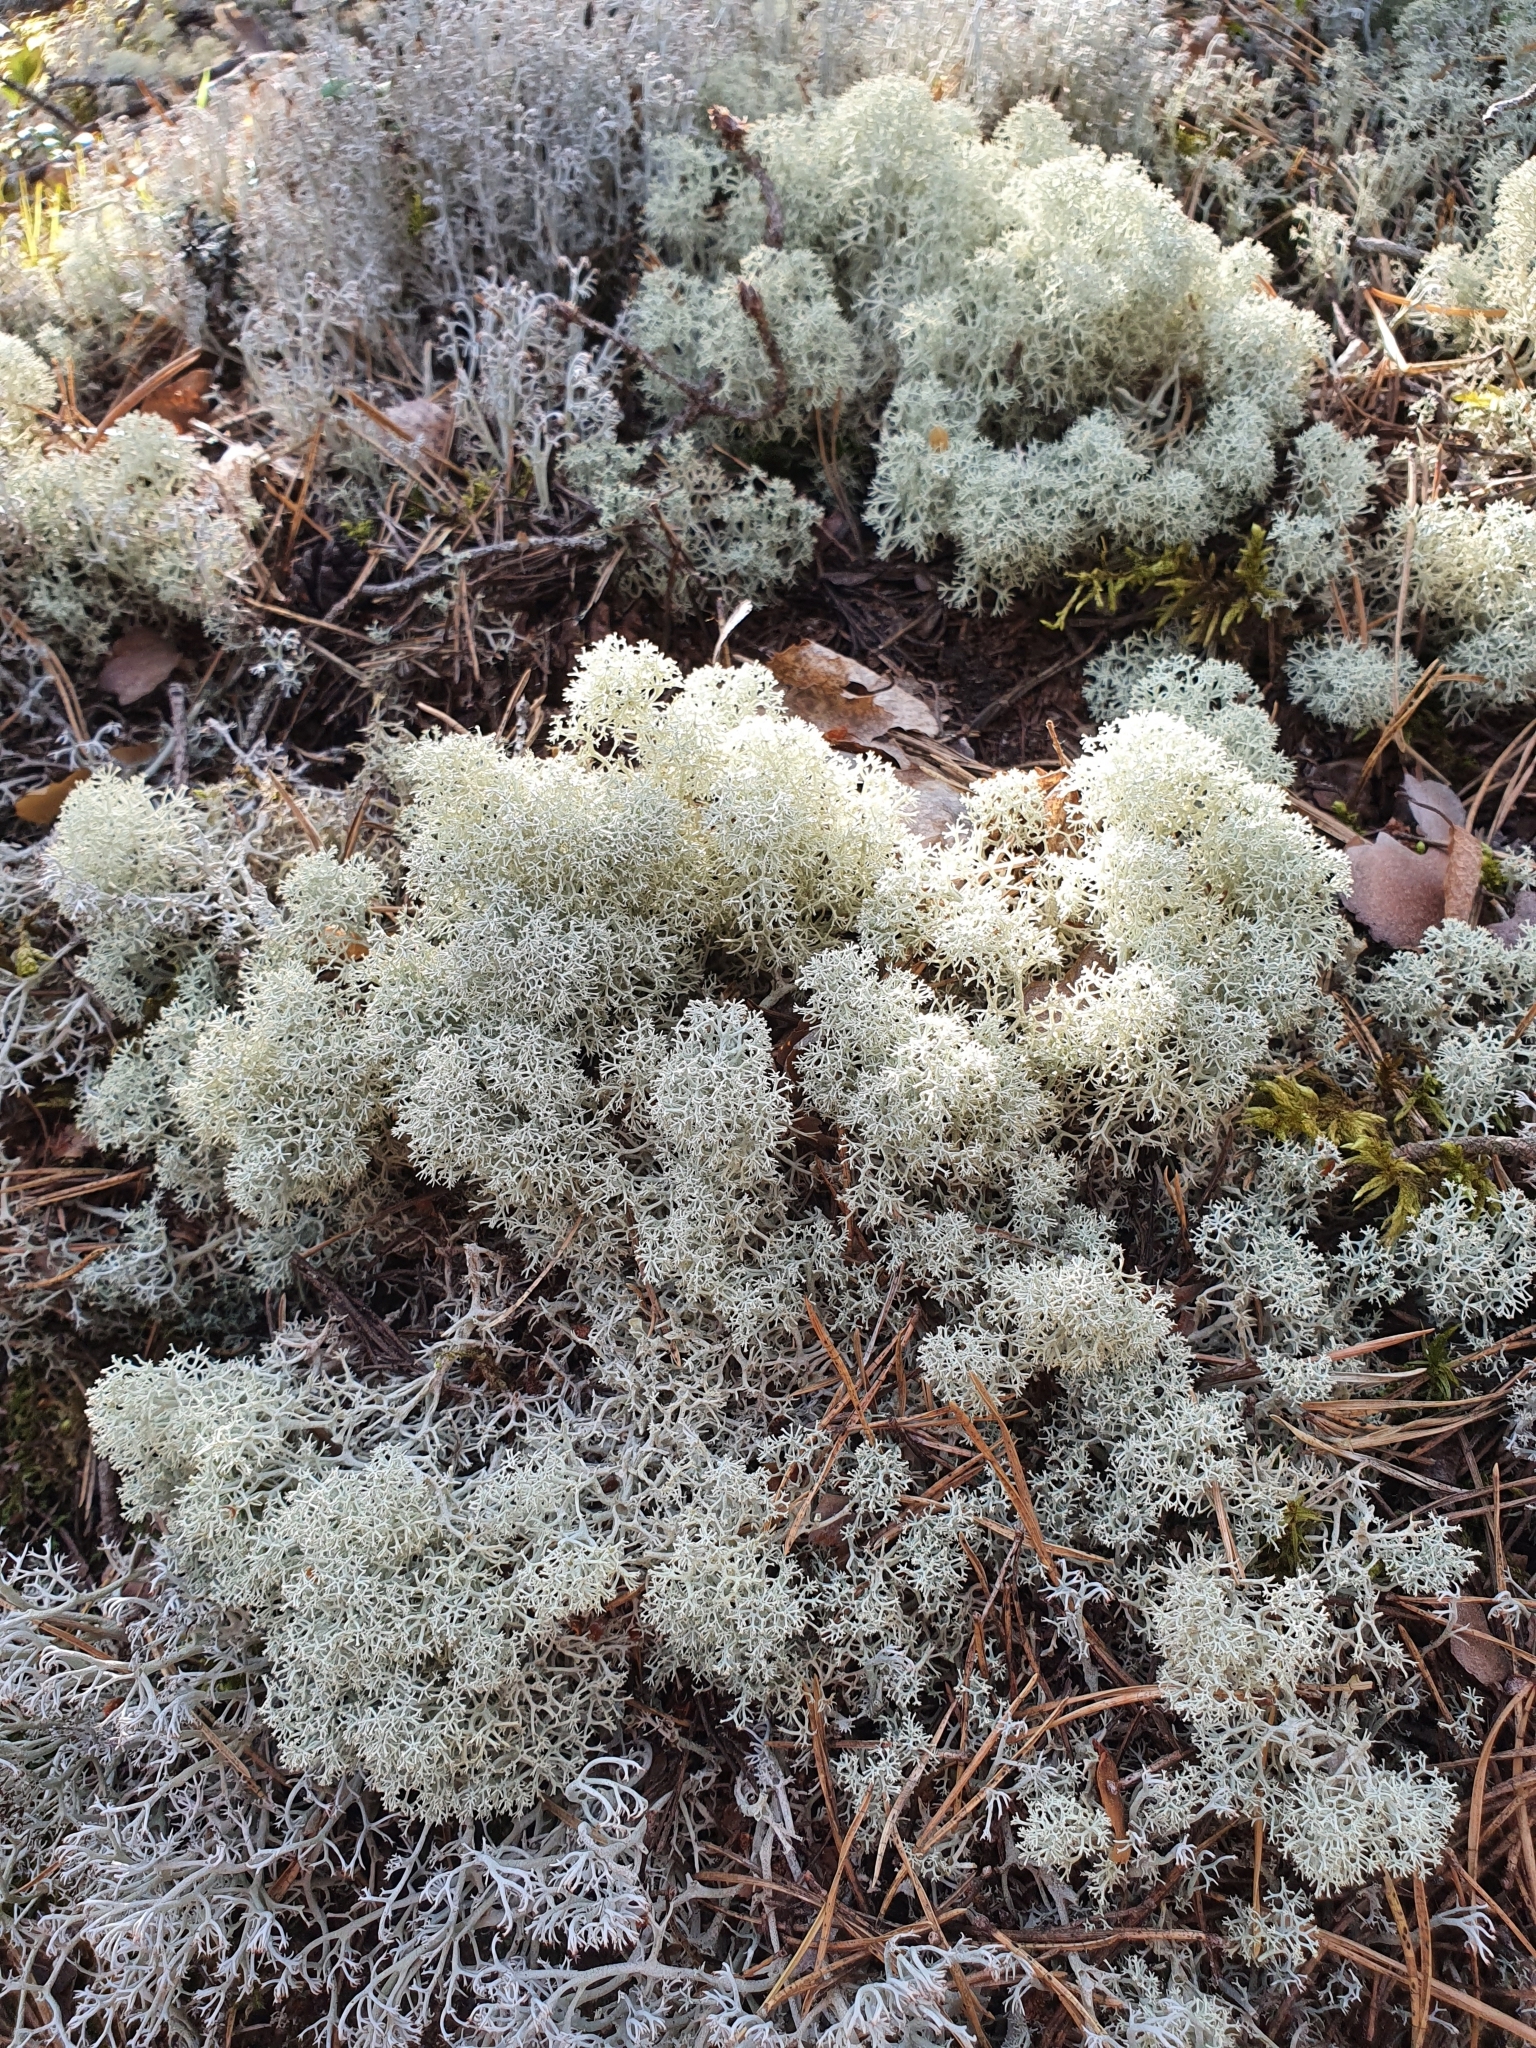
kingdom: Fungi
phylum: Ascomycota
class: Lecanoromycetes
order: Lecanorales
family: Cladoniaceae
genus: Cladonia
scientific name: Cladonia stellaris
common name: Star-tipped reindeer lichen
